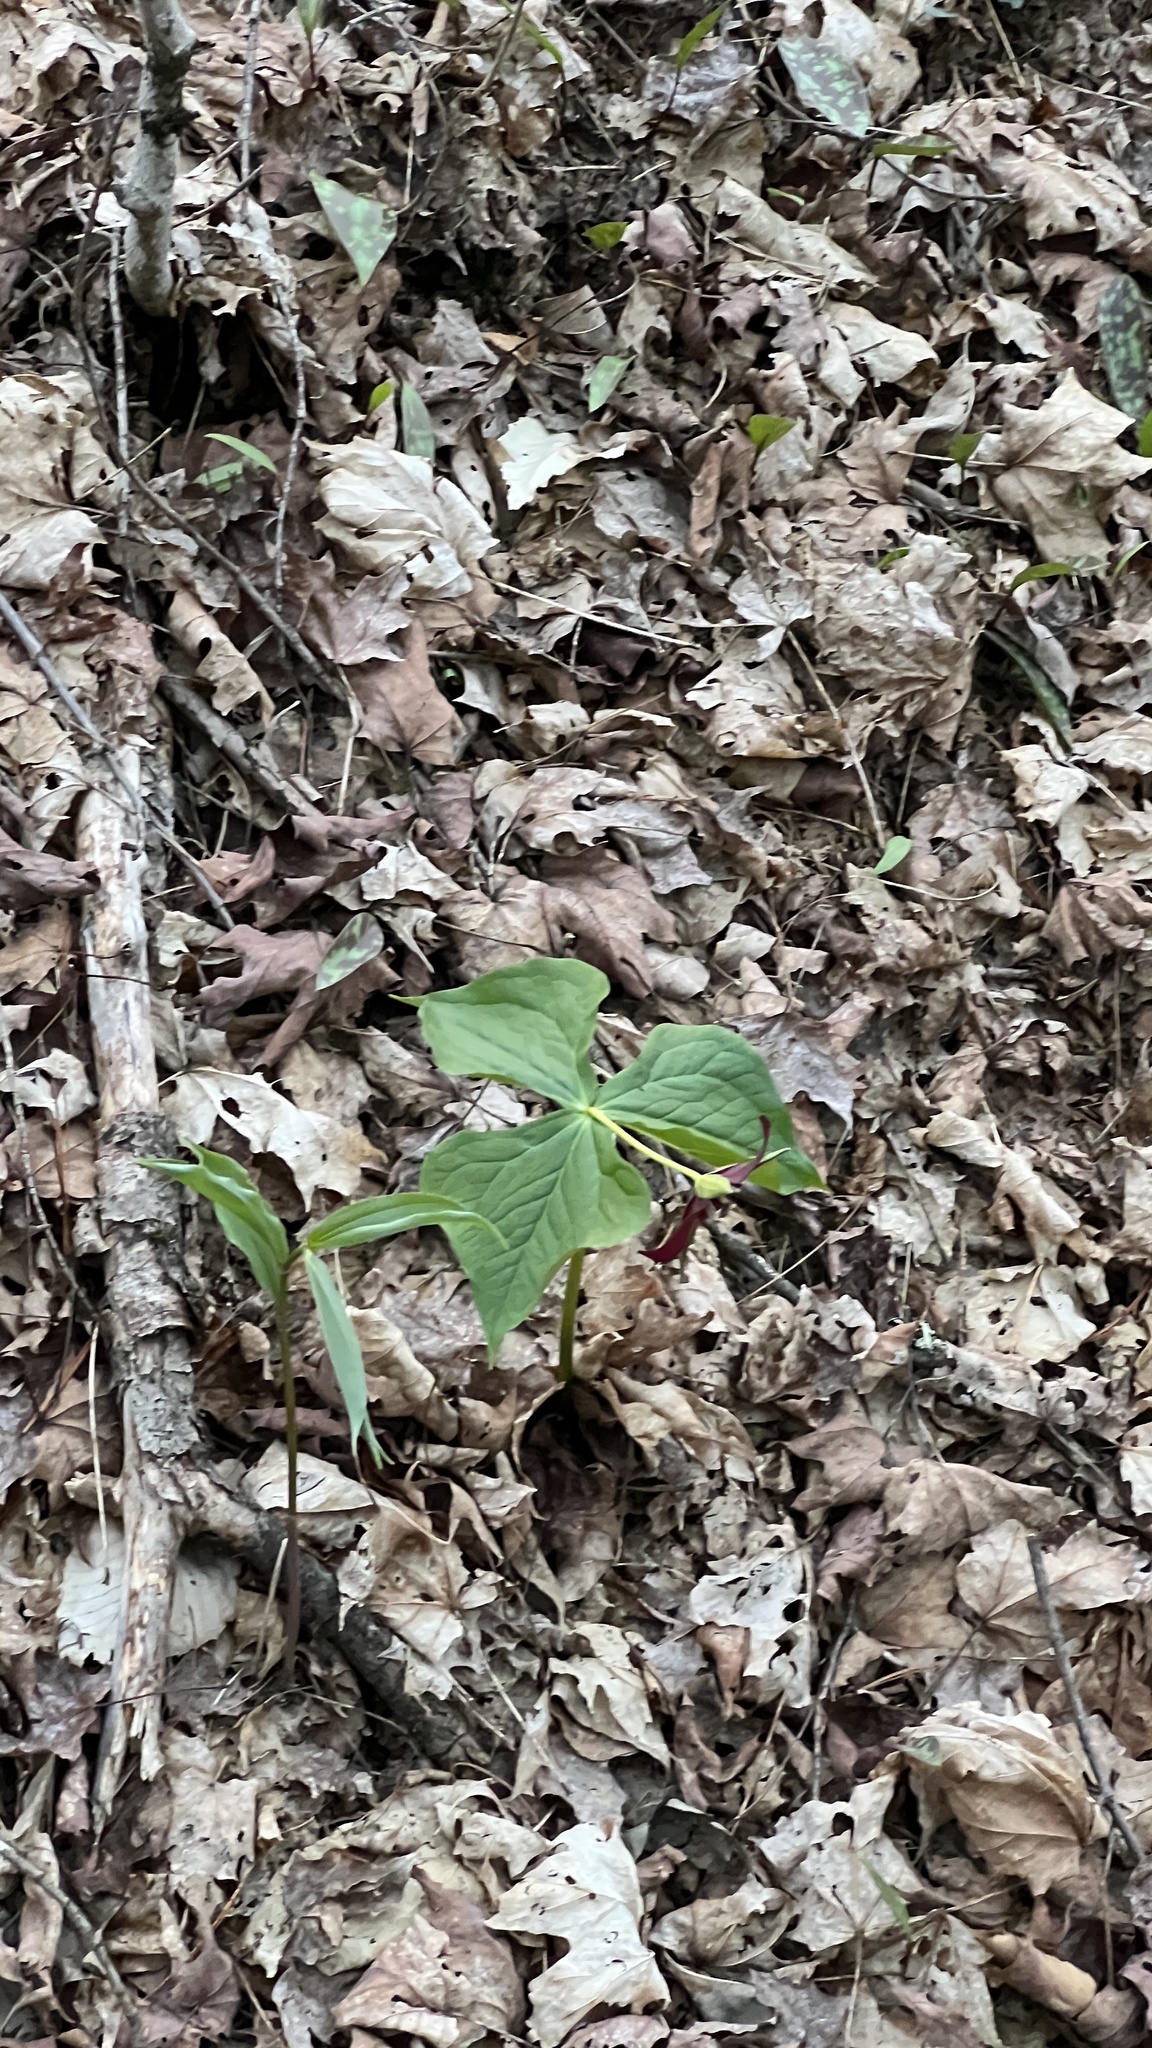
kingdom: Plantae
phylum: Tracheophyta
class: Liliopsida
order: Liliales
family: Melanthiaceae
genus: Trillium
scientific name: Trillium erectum
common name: Purple trillium
